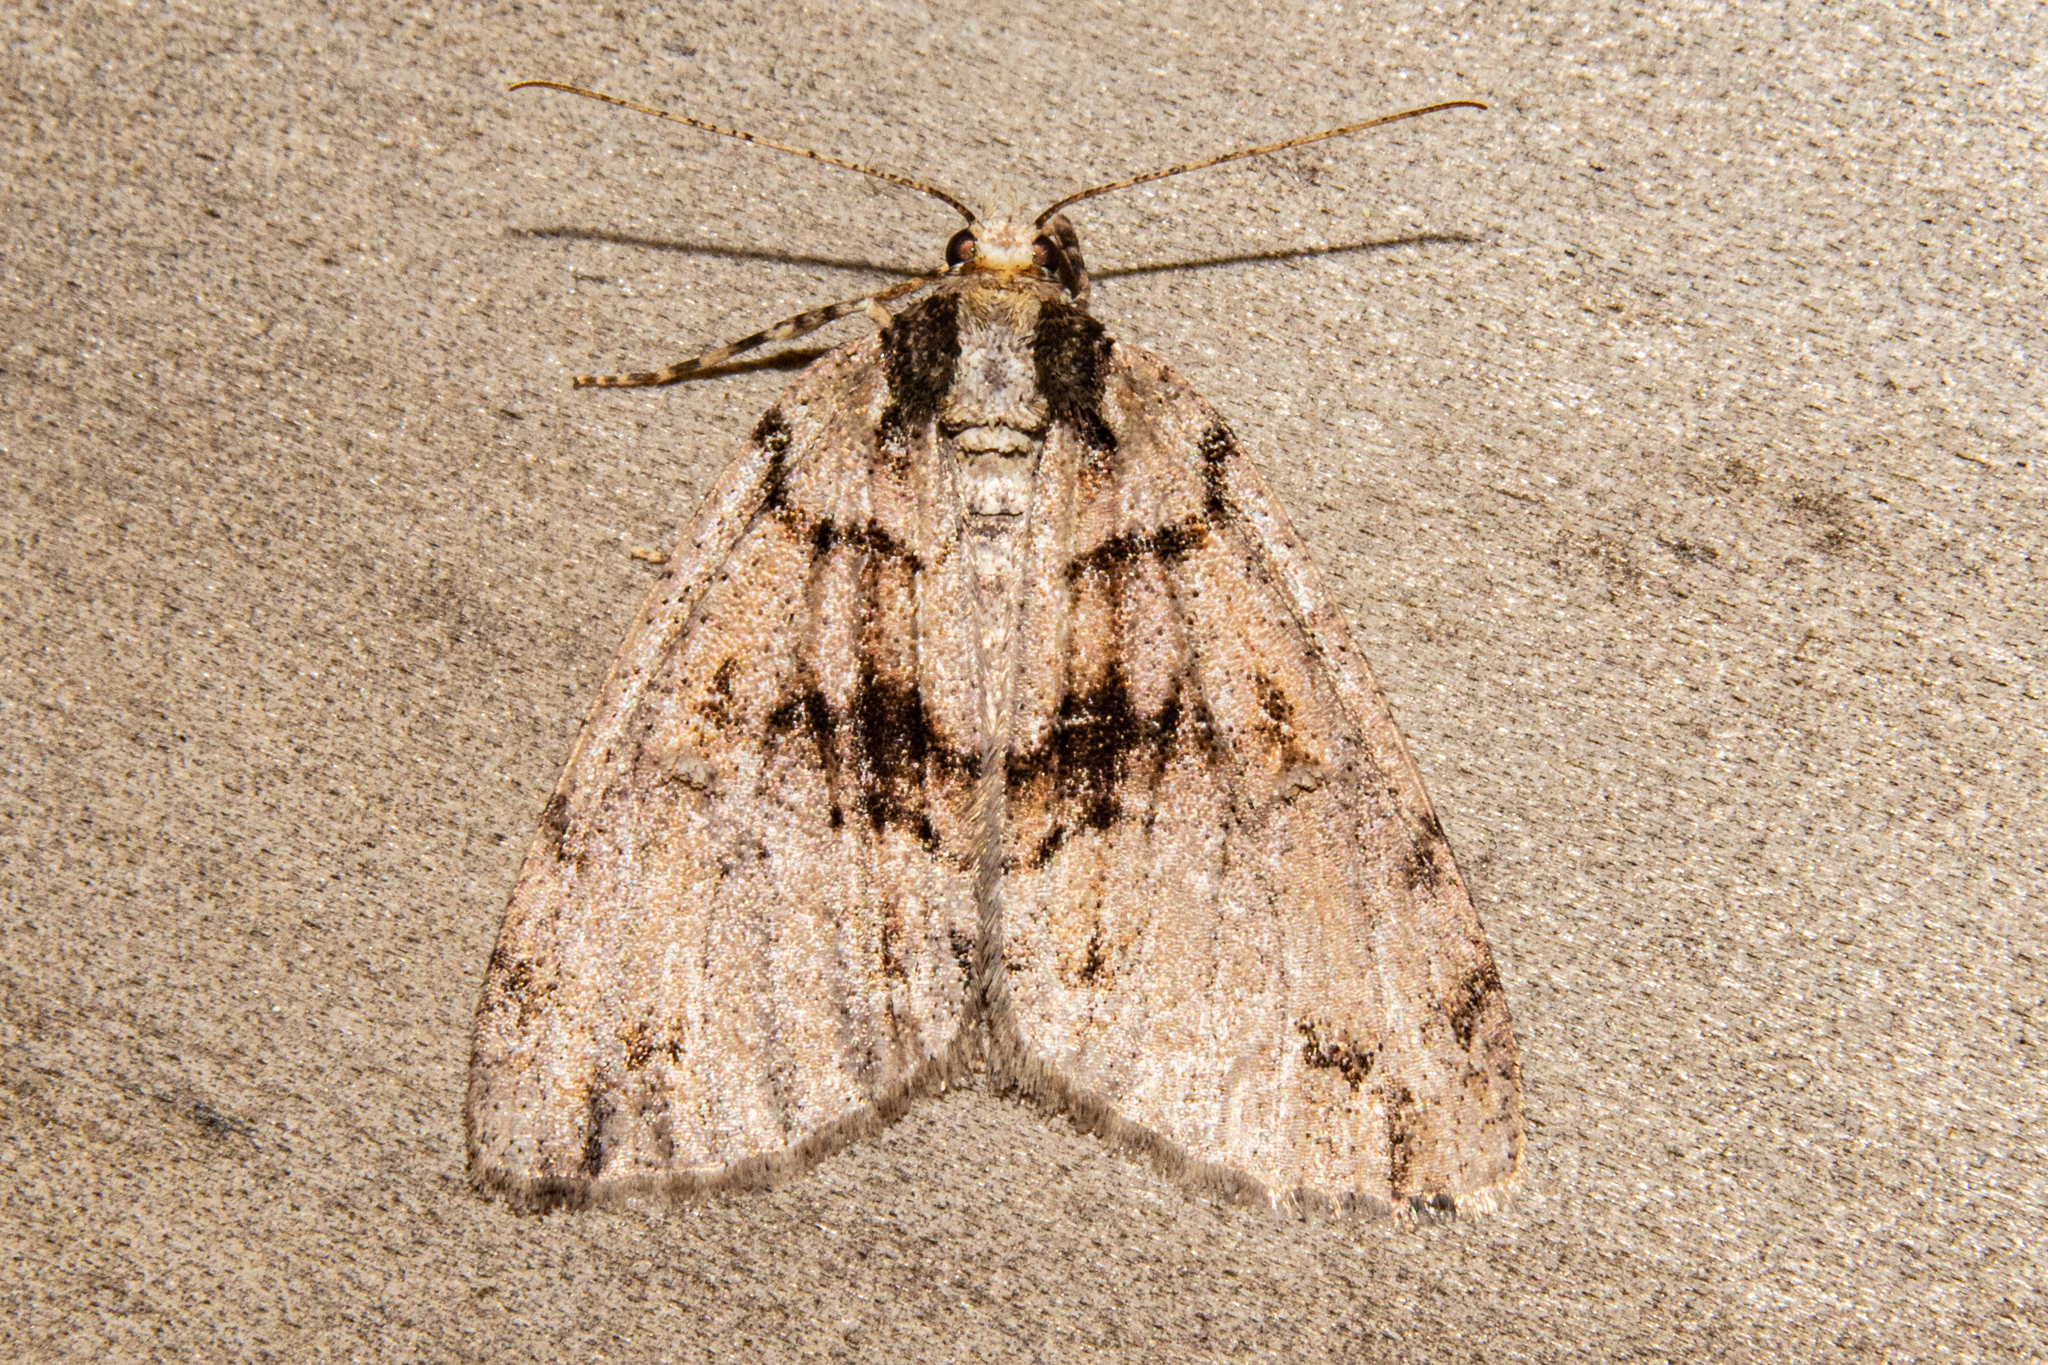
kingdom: Animalia
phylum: Arthropoda
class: Insecta
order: Lepidoptera
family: Geometridae
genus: Pseudocoremia
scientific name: Pseudocoremia suavis
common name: Common forest looper
